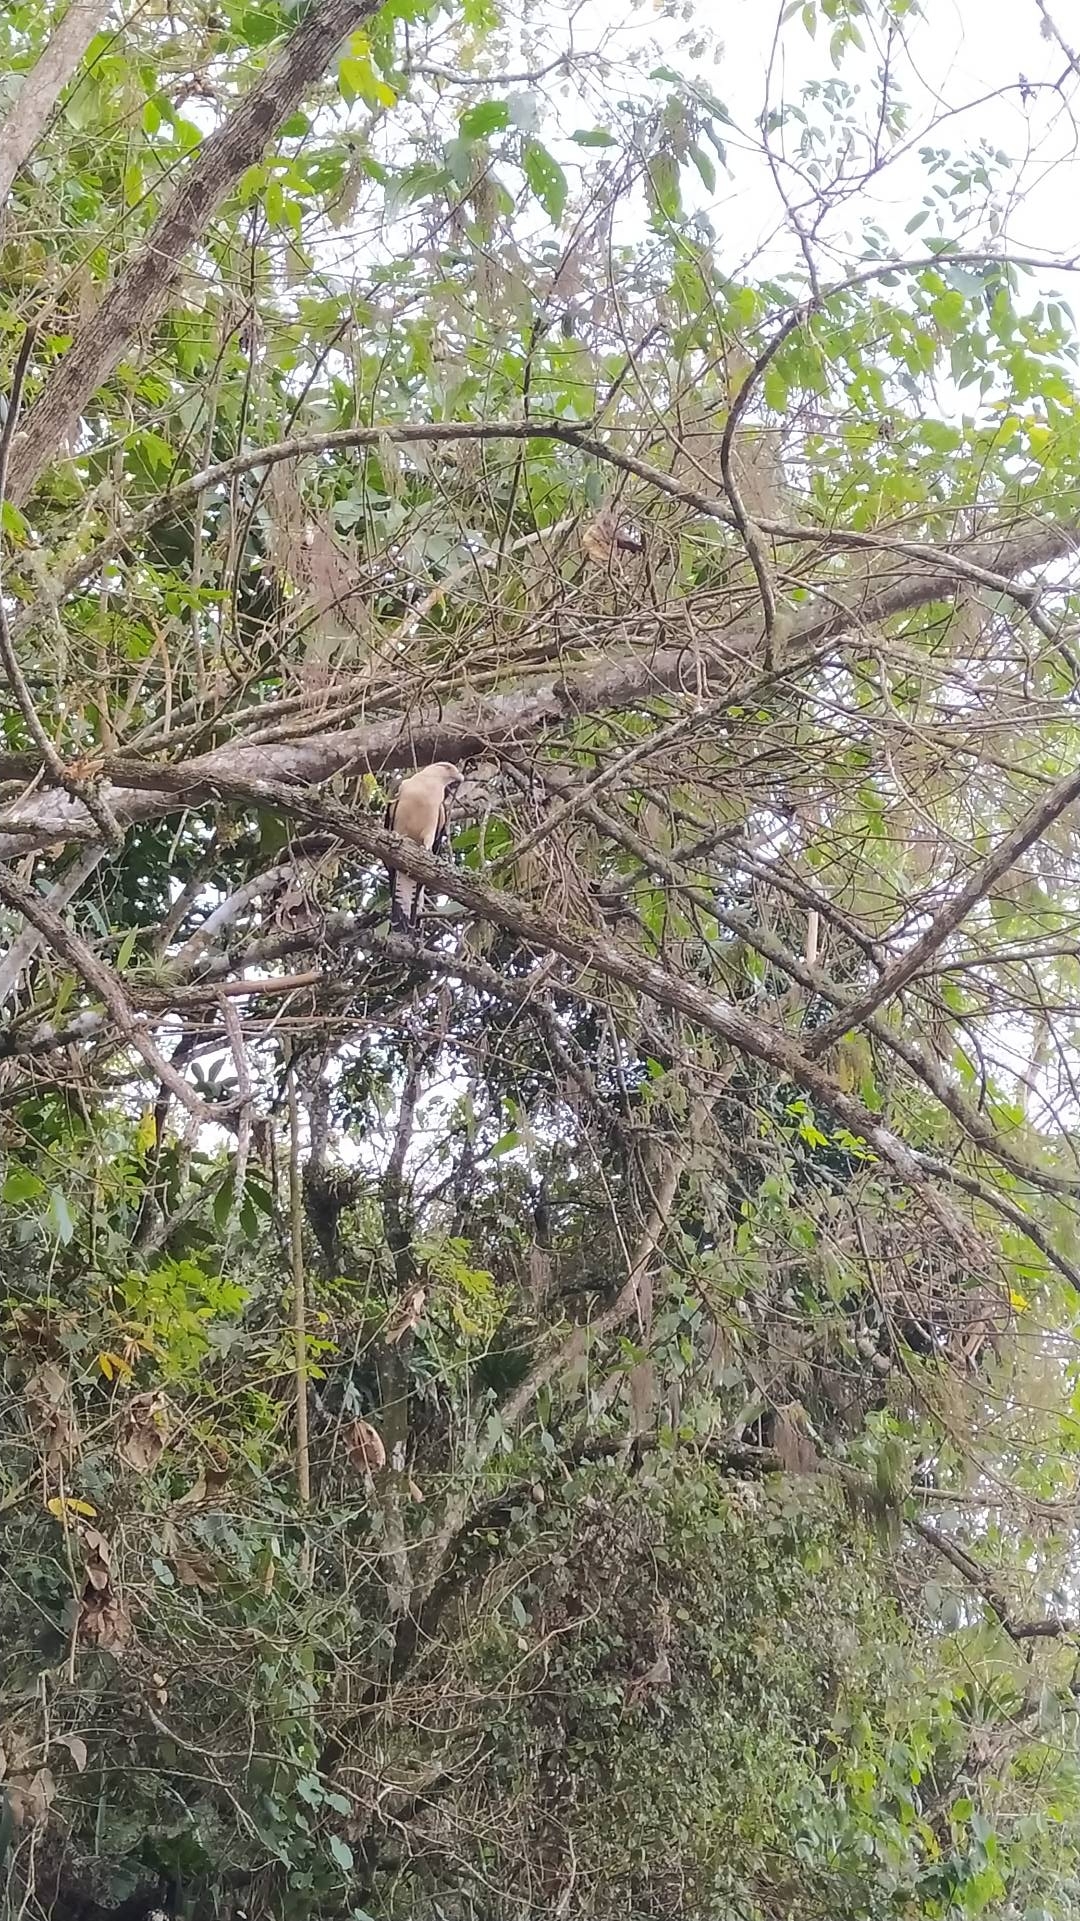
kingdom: Animalia
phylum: Chordata
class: Aves
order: Falconiformes
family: Falconidae
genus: Daptrius
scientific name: Daptrius
